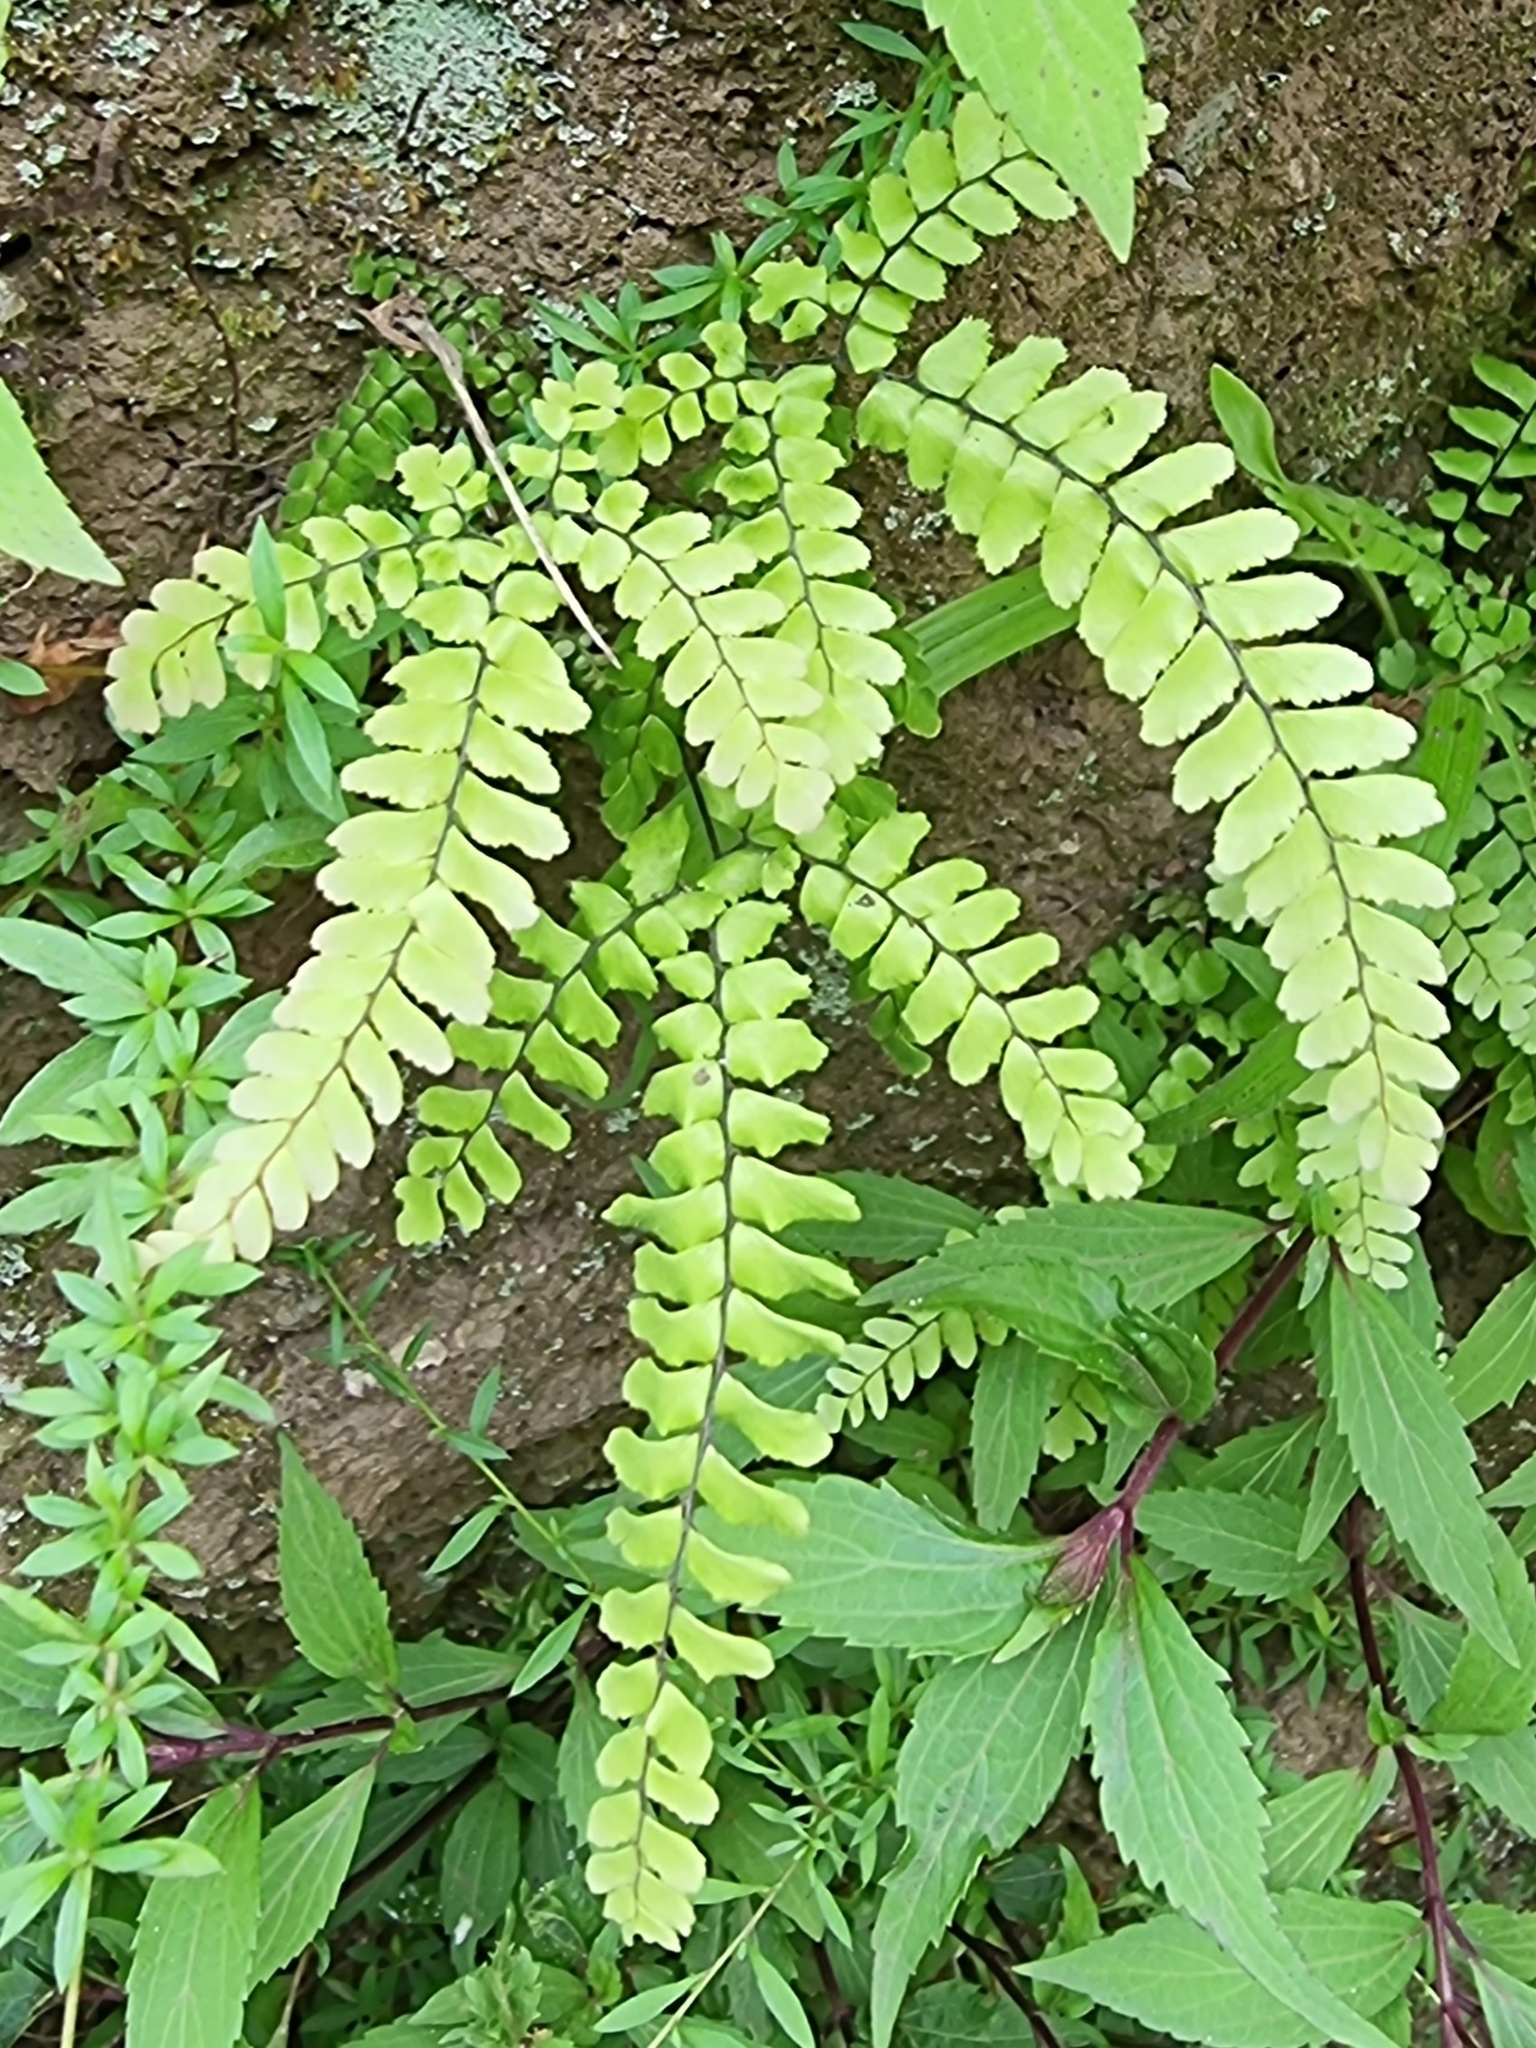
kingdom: Plantae
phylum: Tracheophyta
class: Polypodiopsida
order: Polypodiales
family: Pteridaceae
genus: Adiantum
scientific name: Adiantum hispidulum
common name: Rough maidenhair
